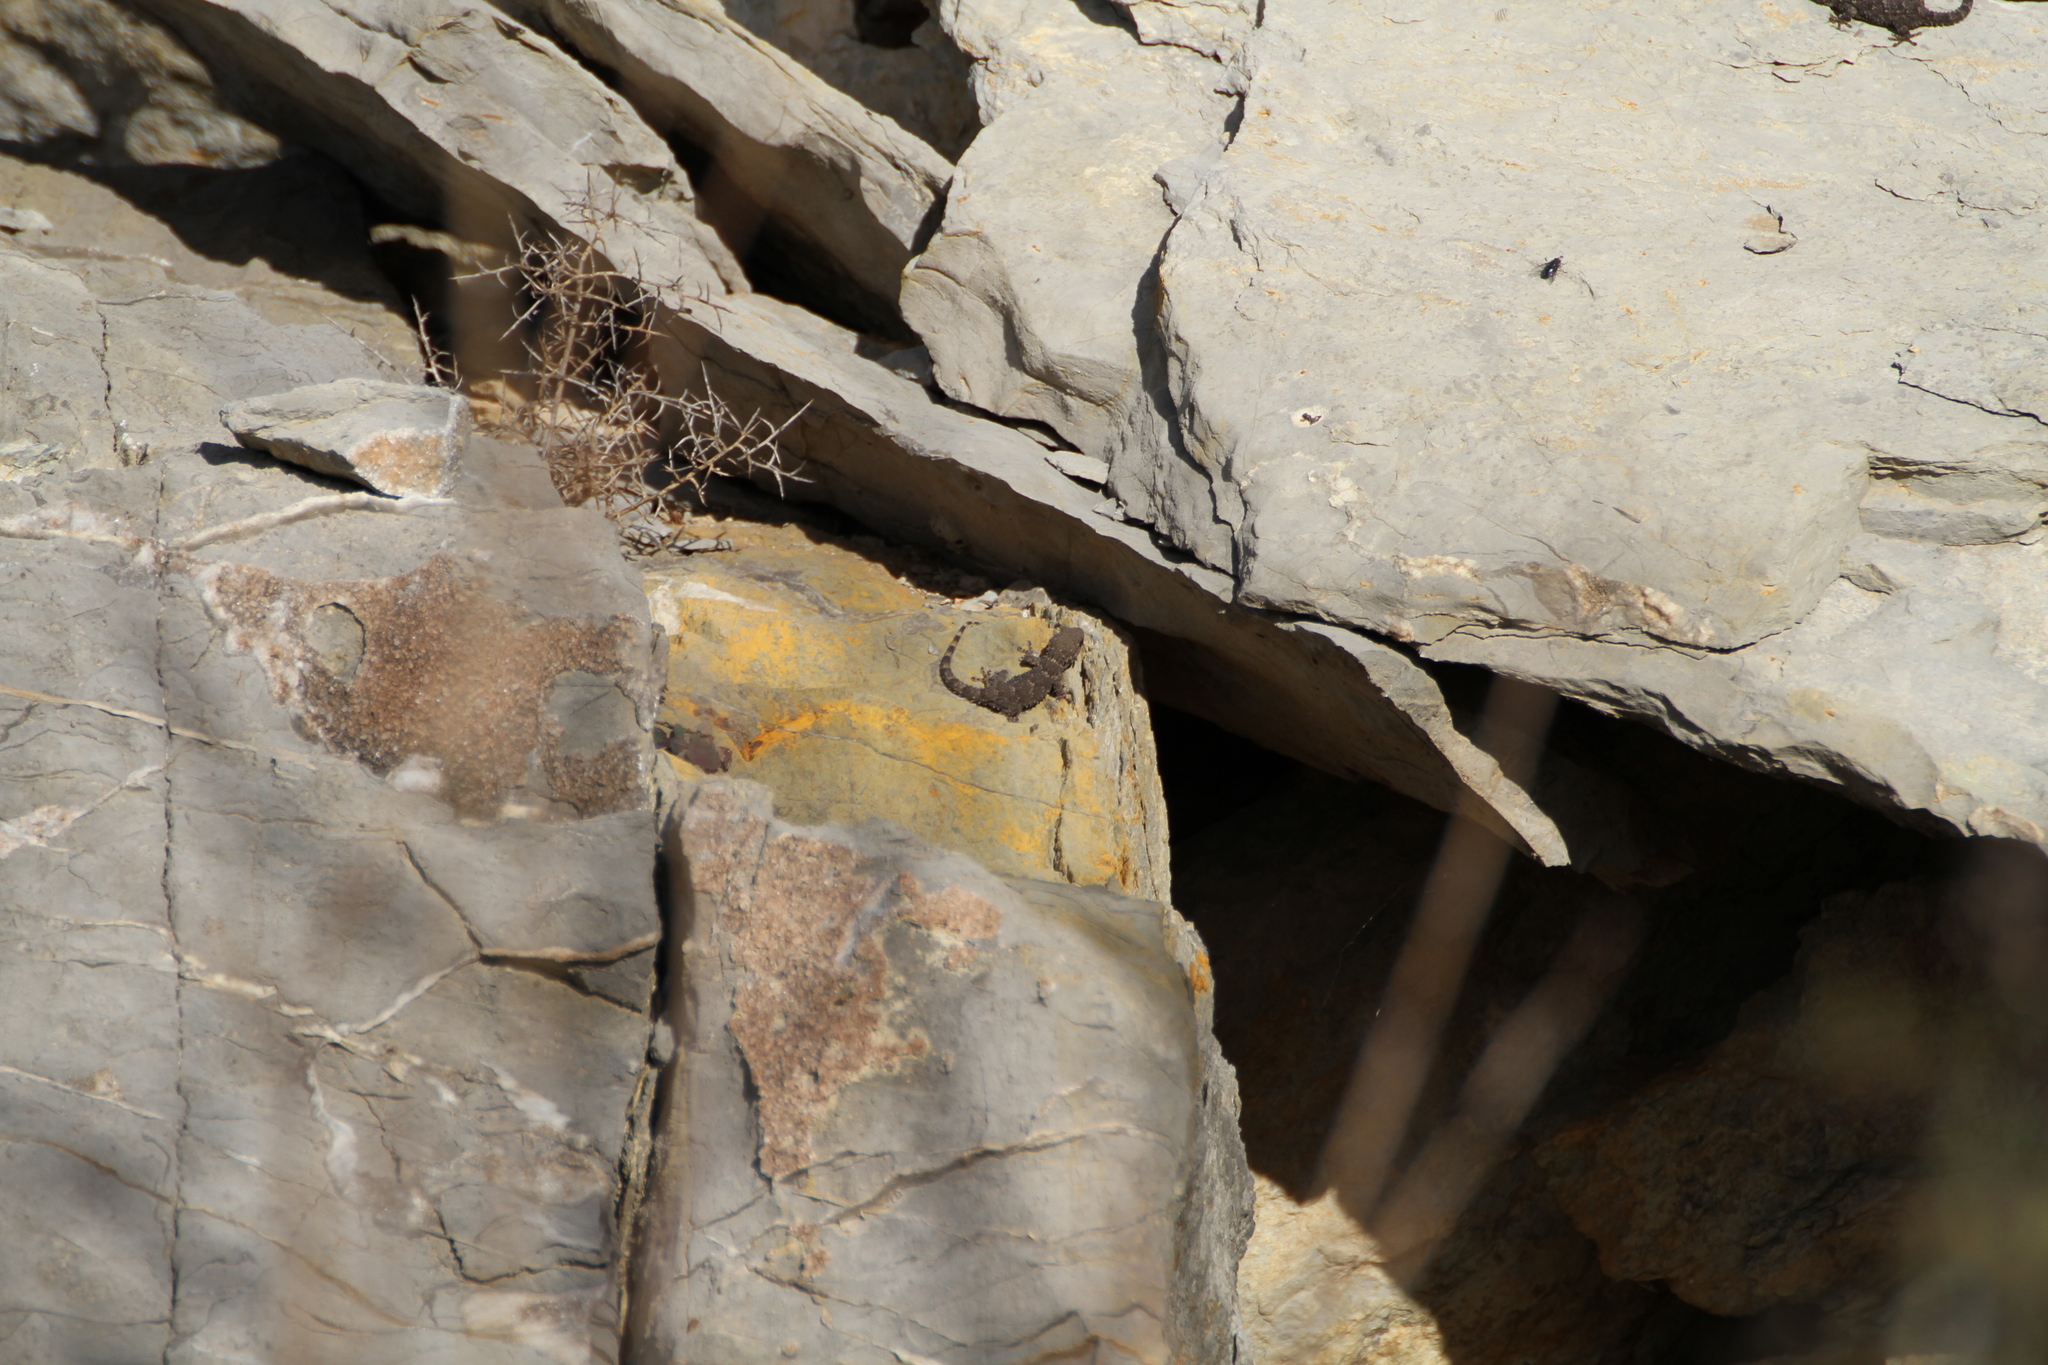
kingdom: Animalia
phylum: Chordata
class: Squamata
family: Phyllodactylidae
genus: Tarentola
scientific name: Tarentola mauritanica
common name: Moorish gecko
